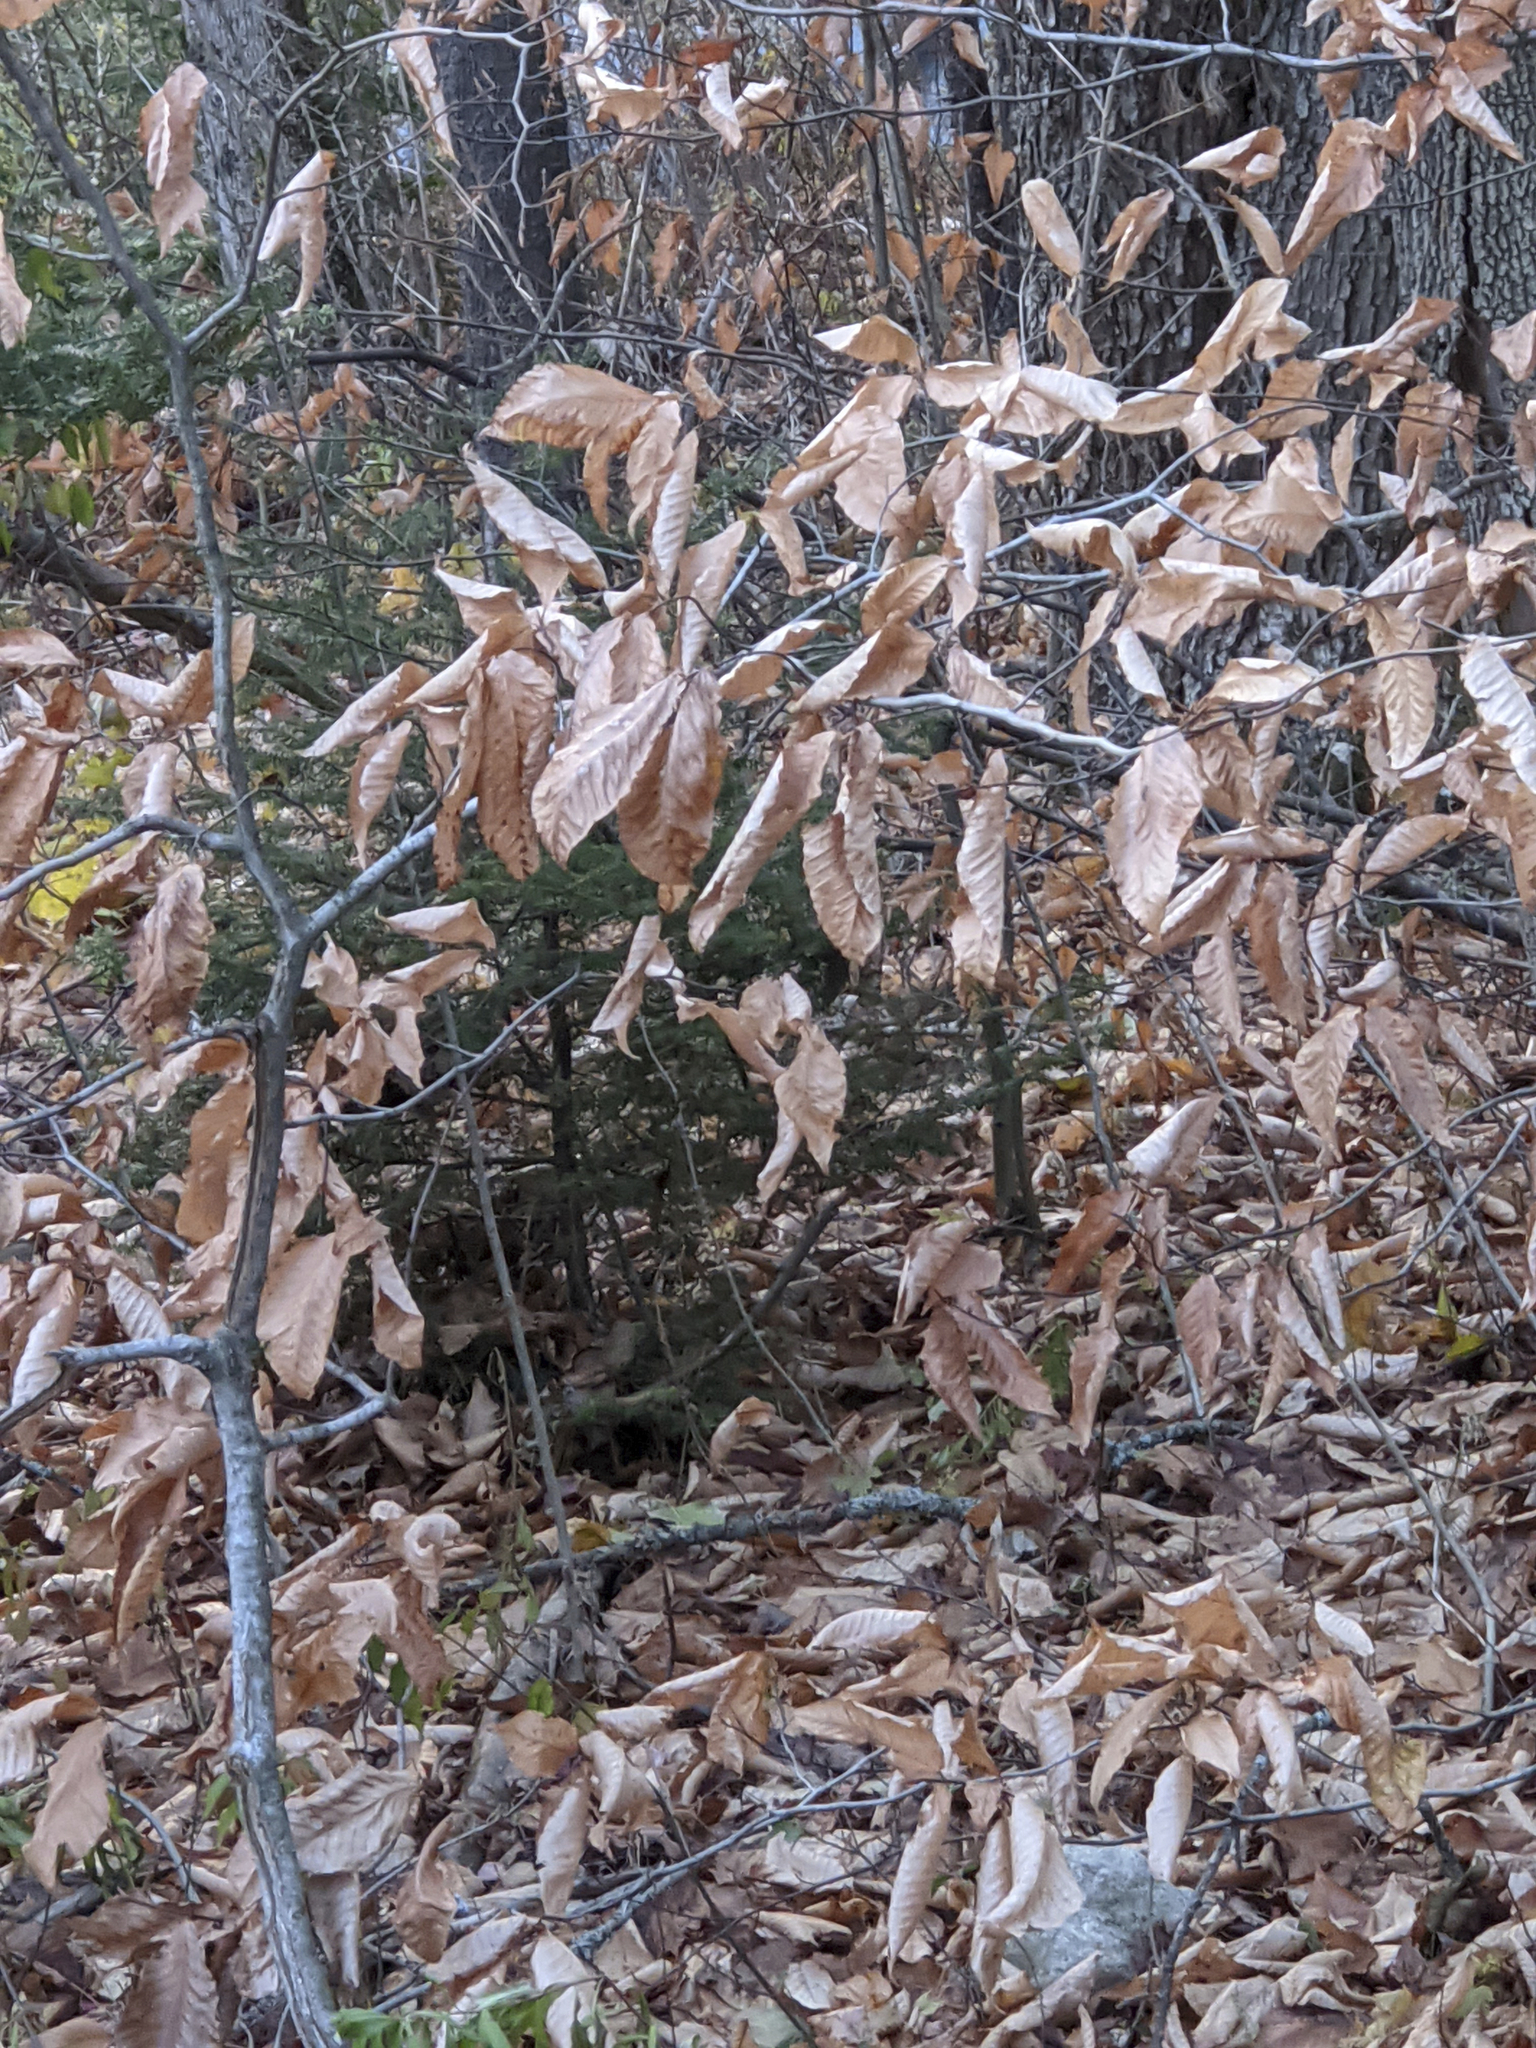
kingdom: Plantae
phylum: Tracheophyta
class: Magnoliopsida
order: Fagales
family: Fagaceae
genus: Fagus
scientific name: Fagus grandifolia
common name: American beech
